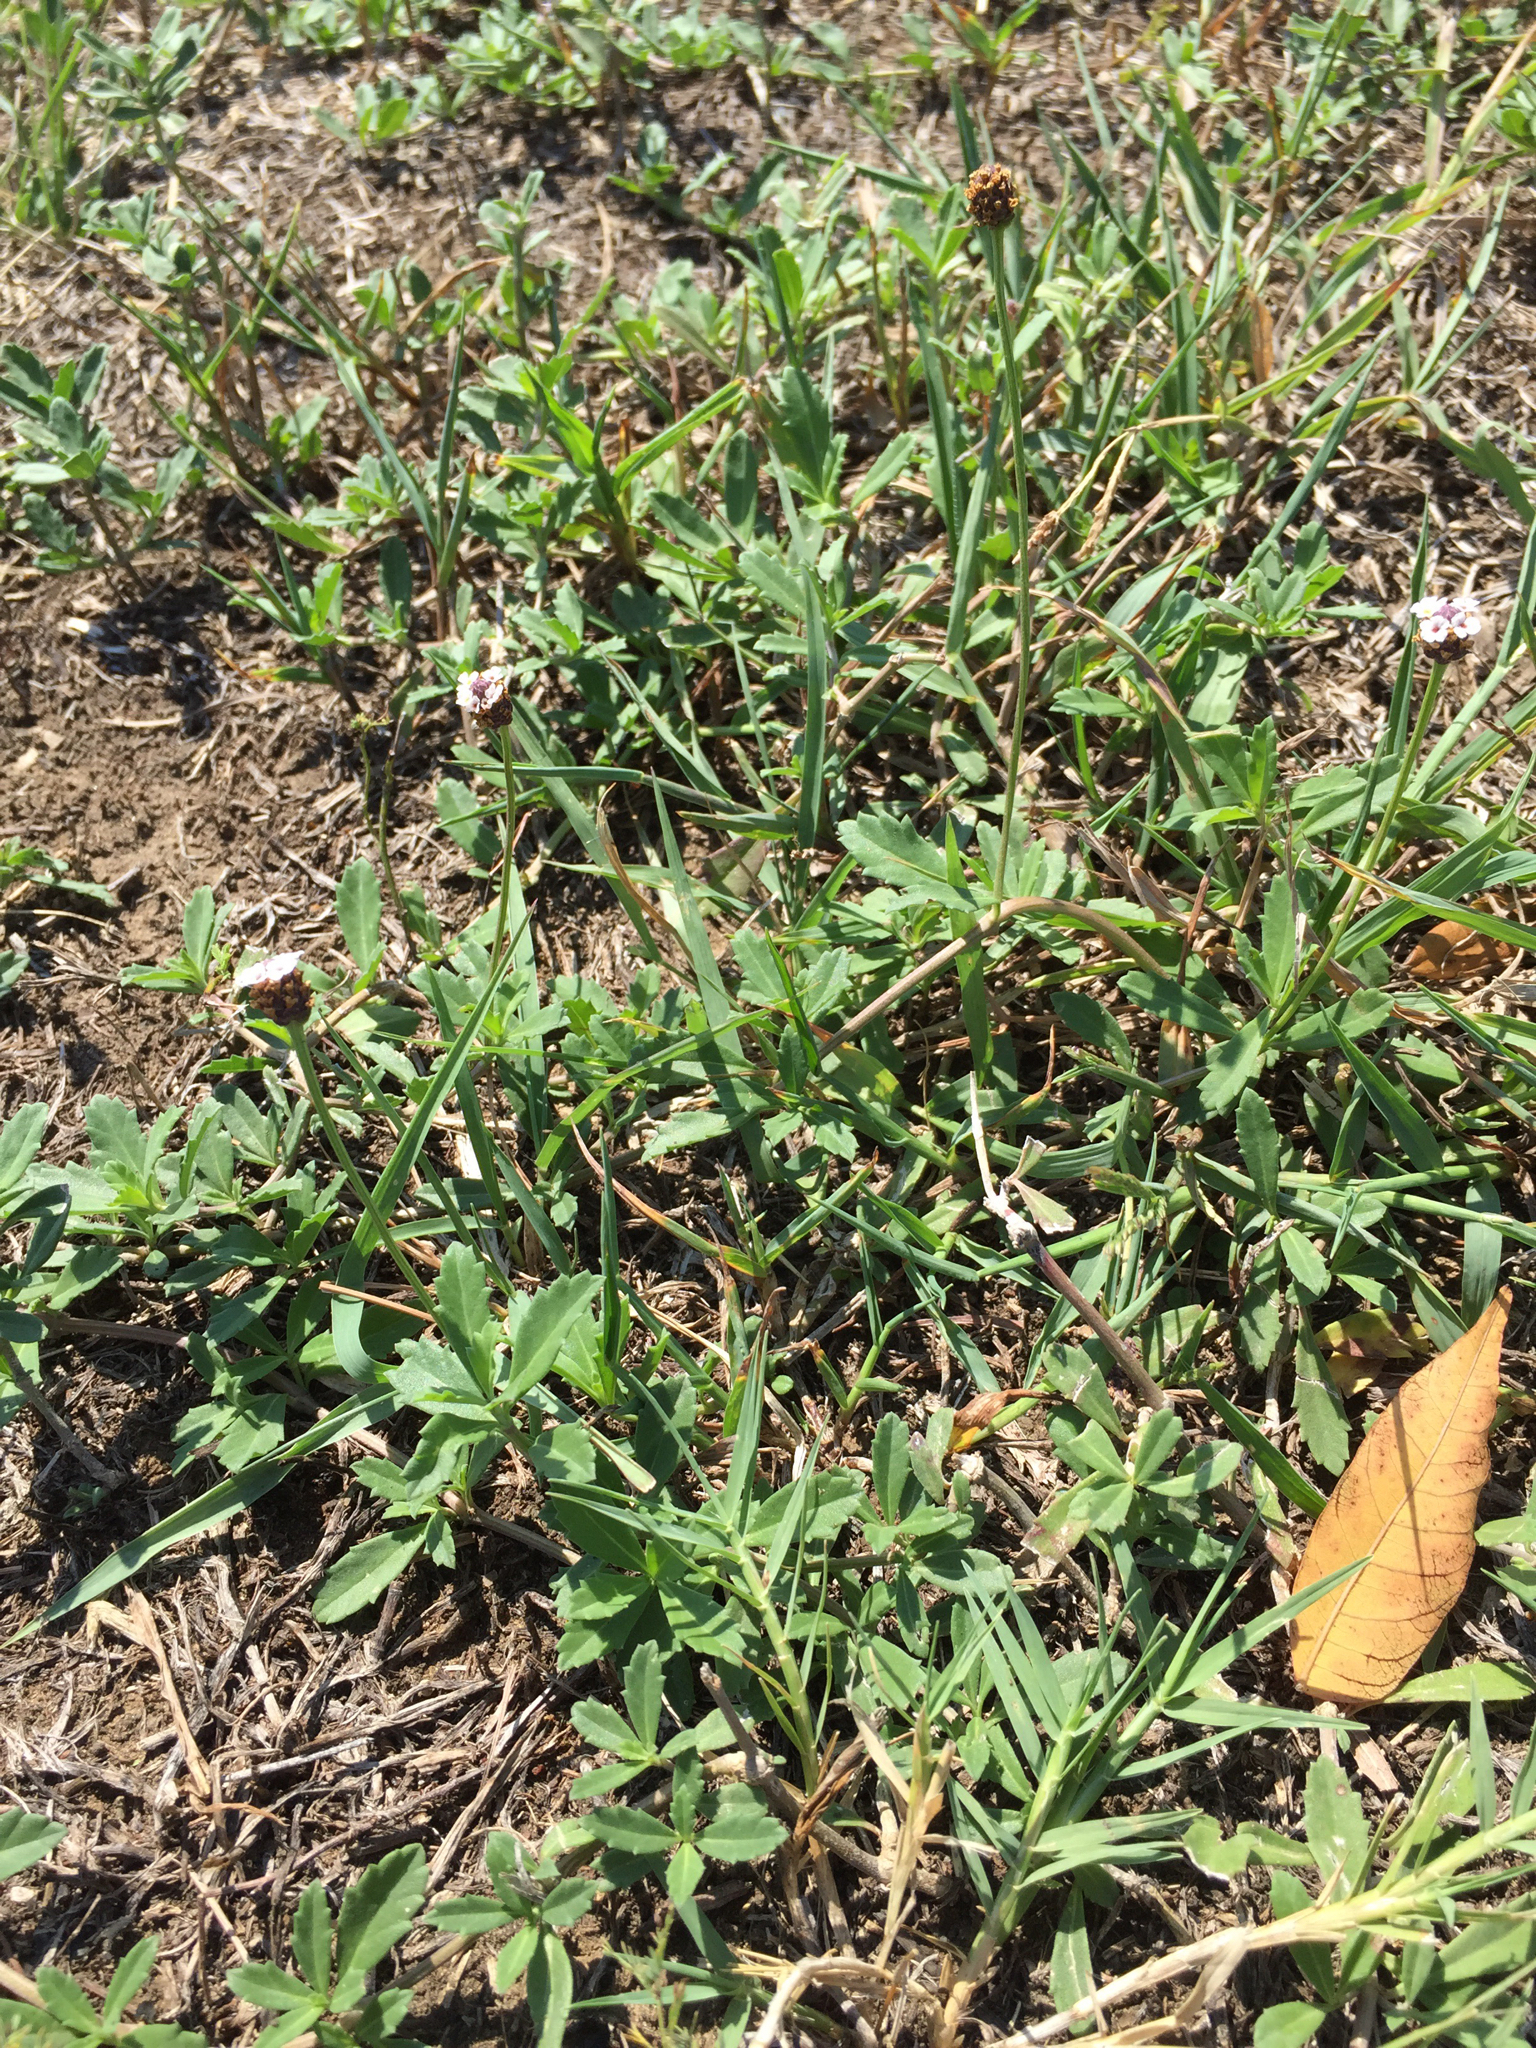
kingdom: Plantae
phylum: Tracheophyta
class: Magnoliopsida
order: Lamiales
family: Verbenaceae
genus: Phyla
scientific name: Phyla nodiflora
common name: Frogfruit
